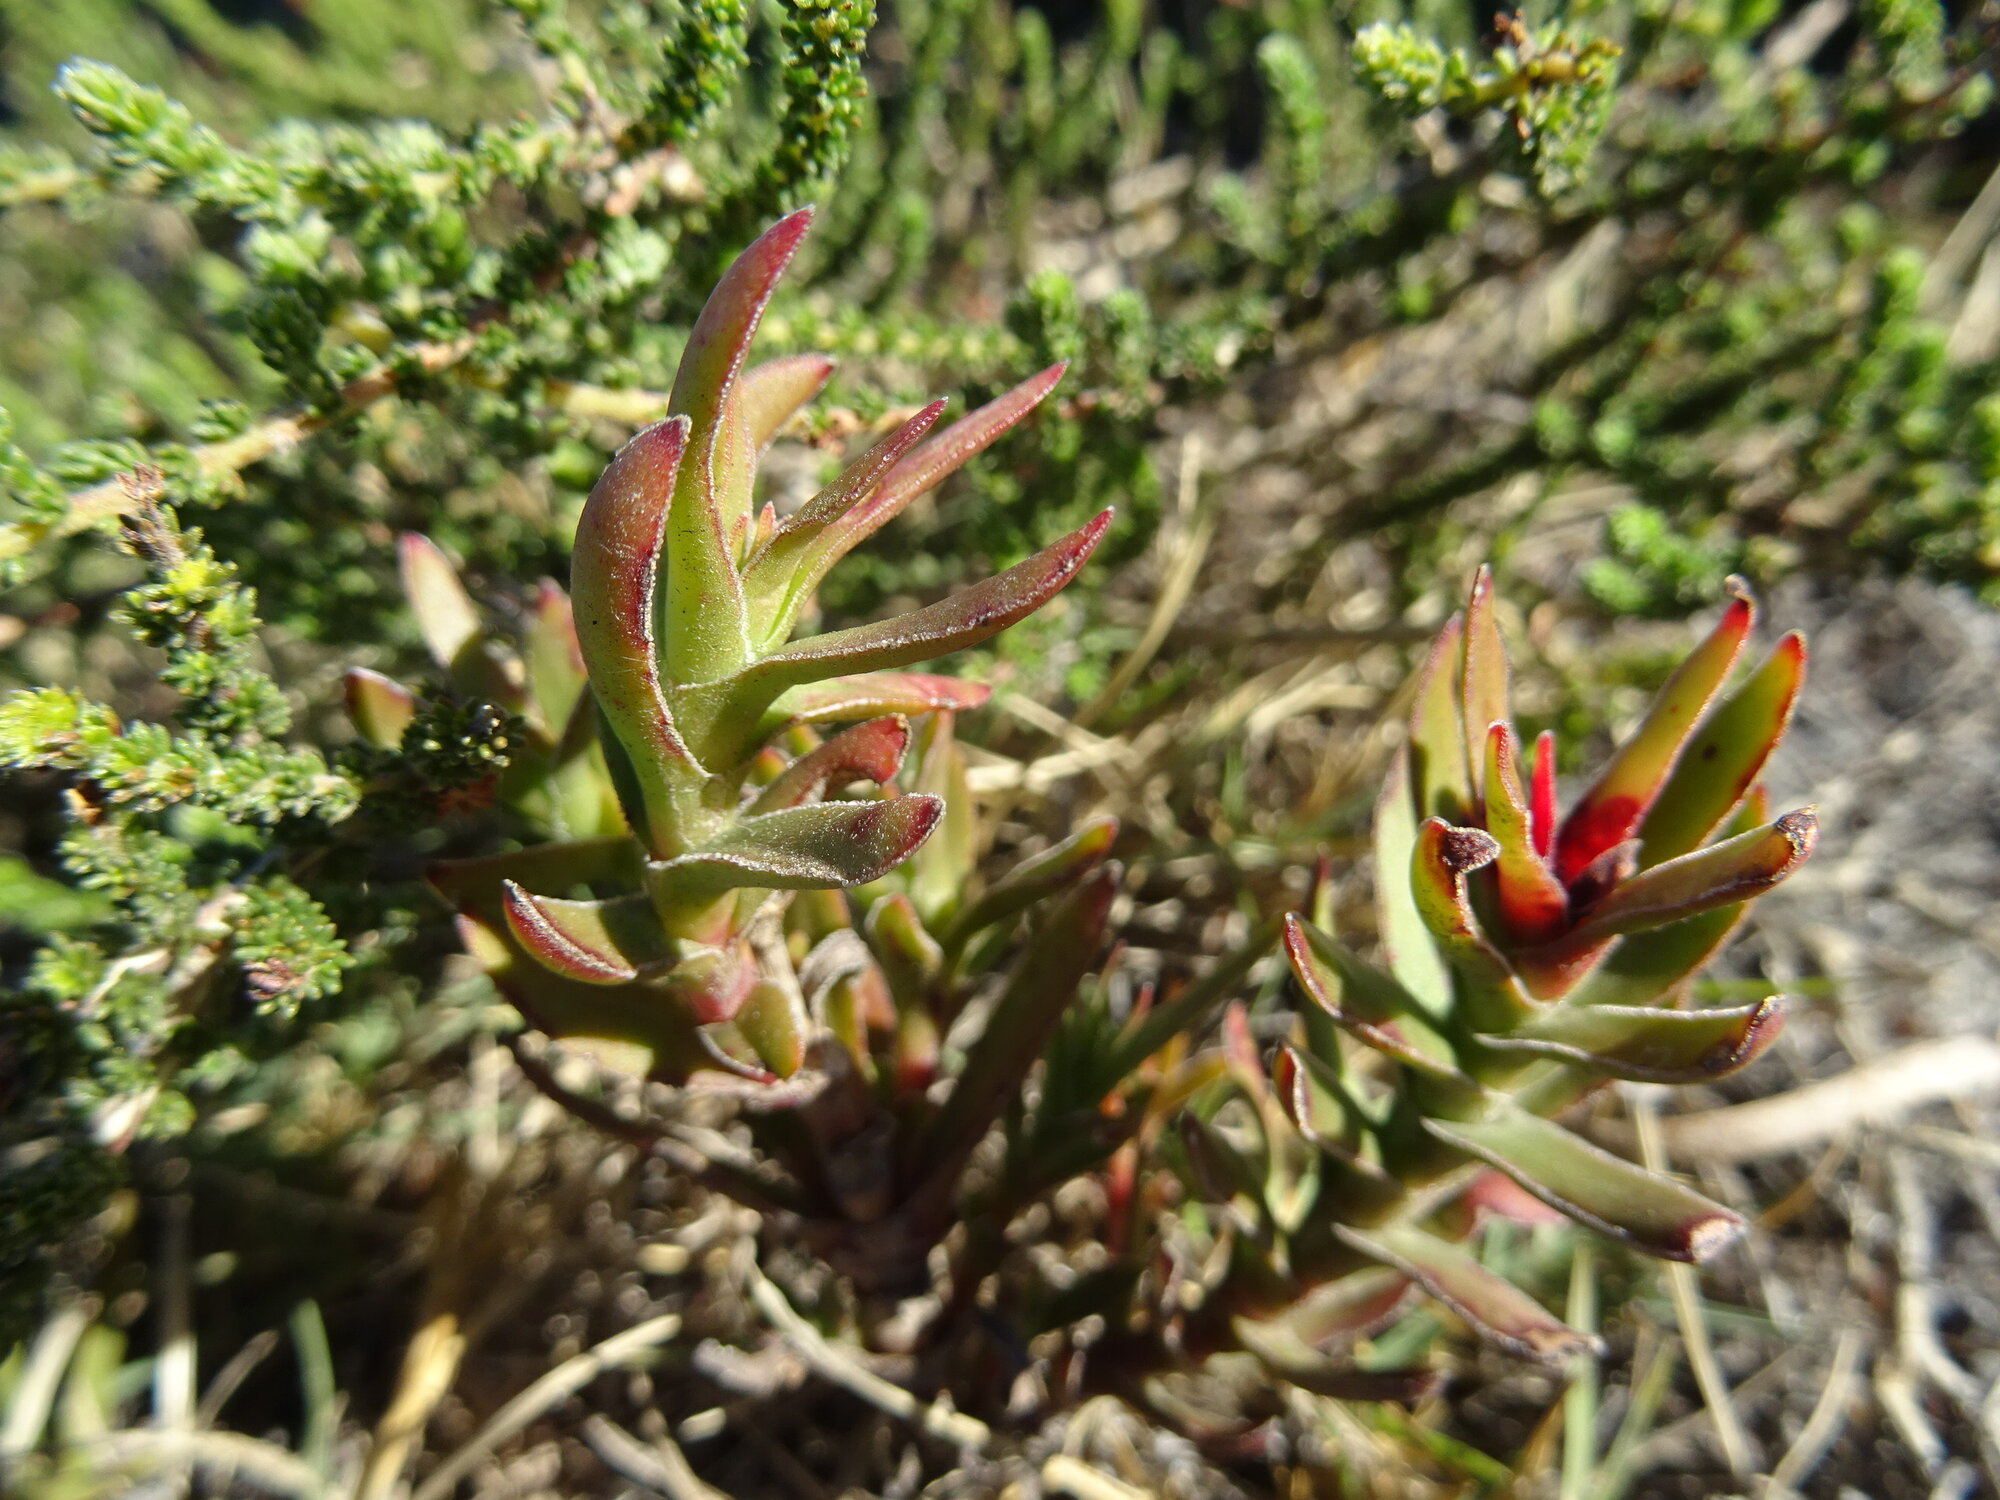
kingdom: Plantae
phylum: Tracheophyta
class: Magnoliopsida
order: Saxifragales
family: Crassulaceae
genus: Crassula
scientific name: Crassula fascicularis
